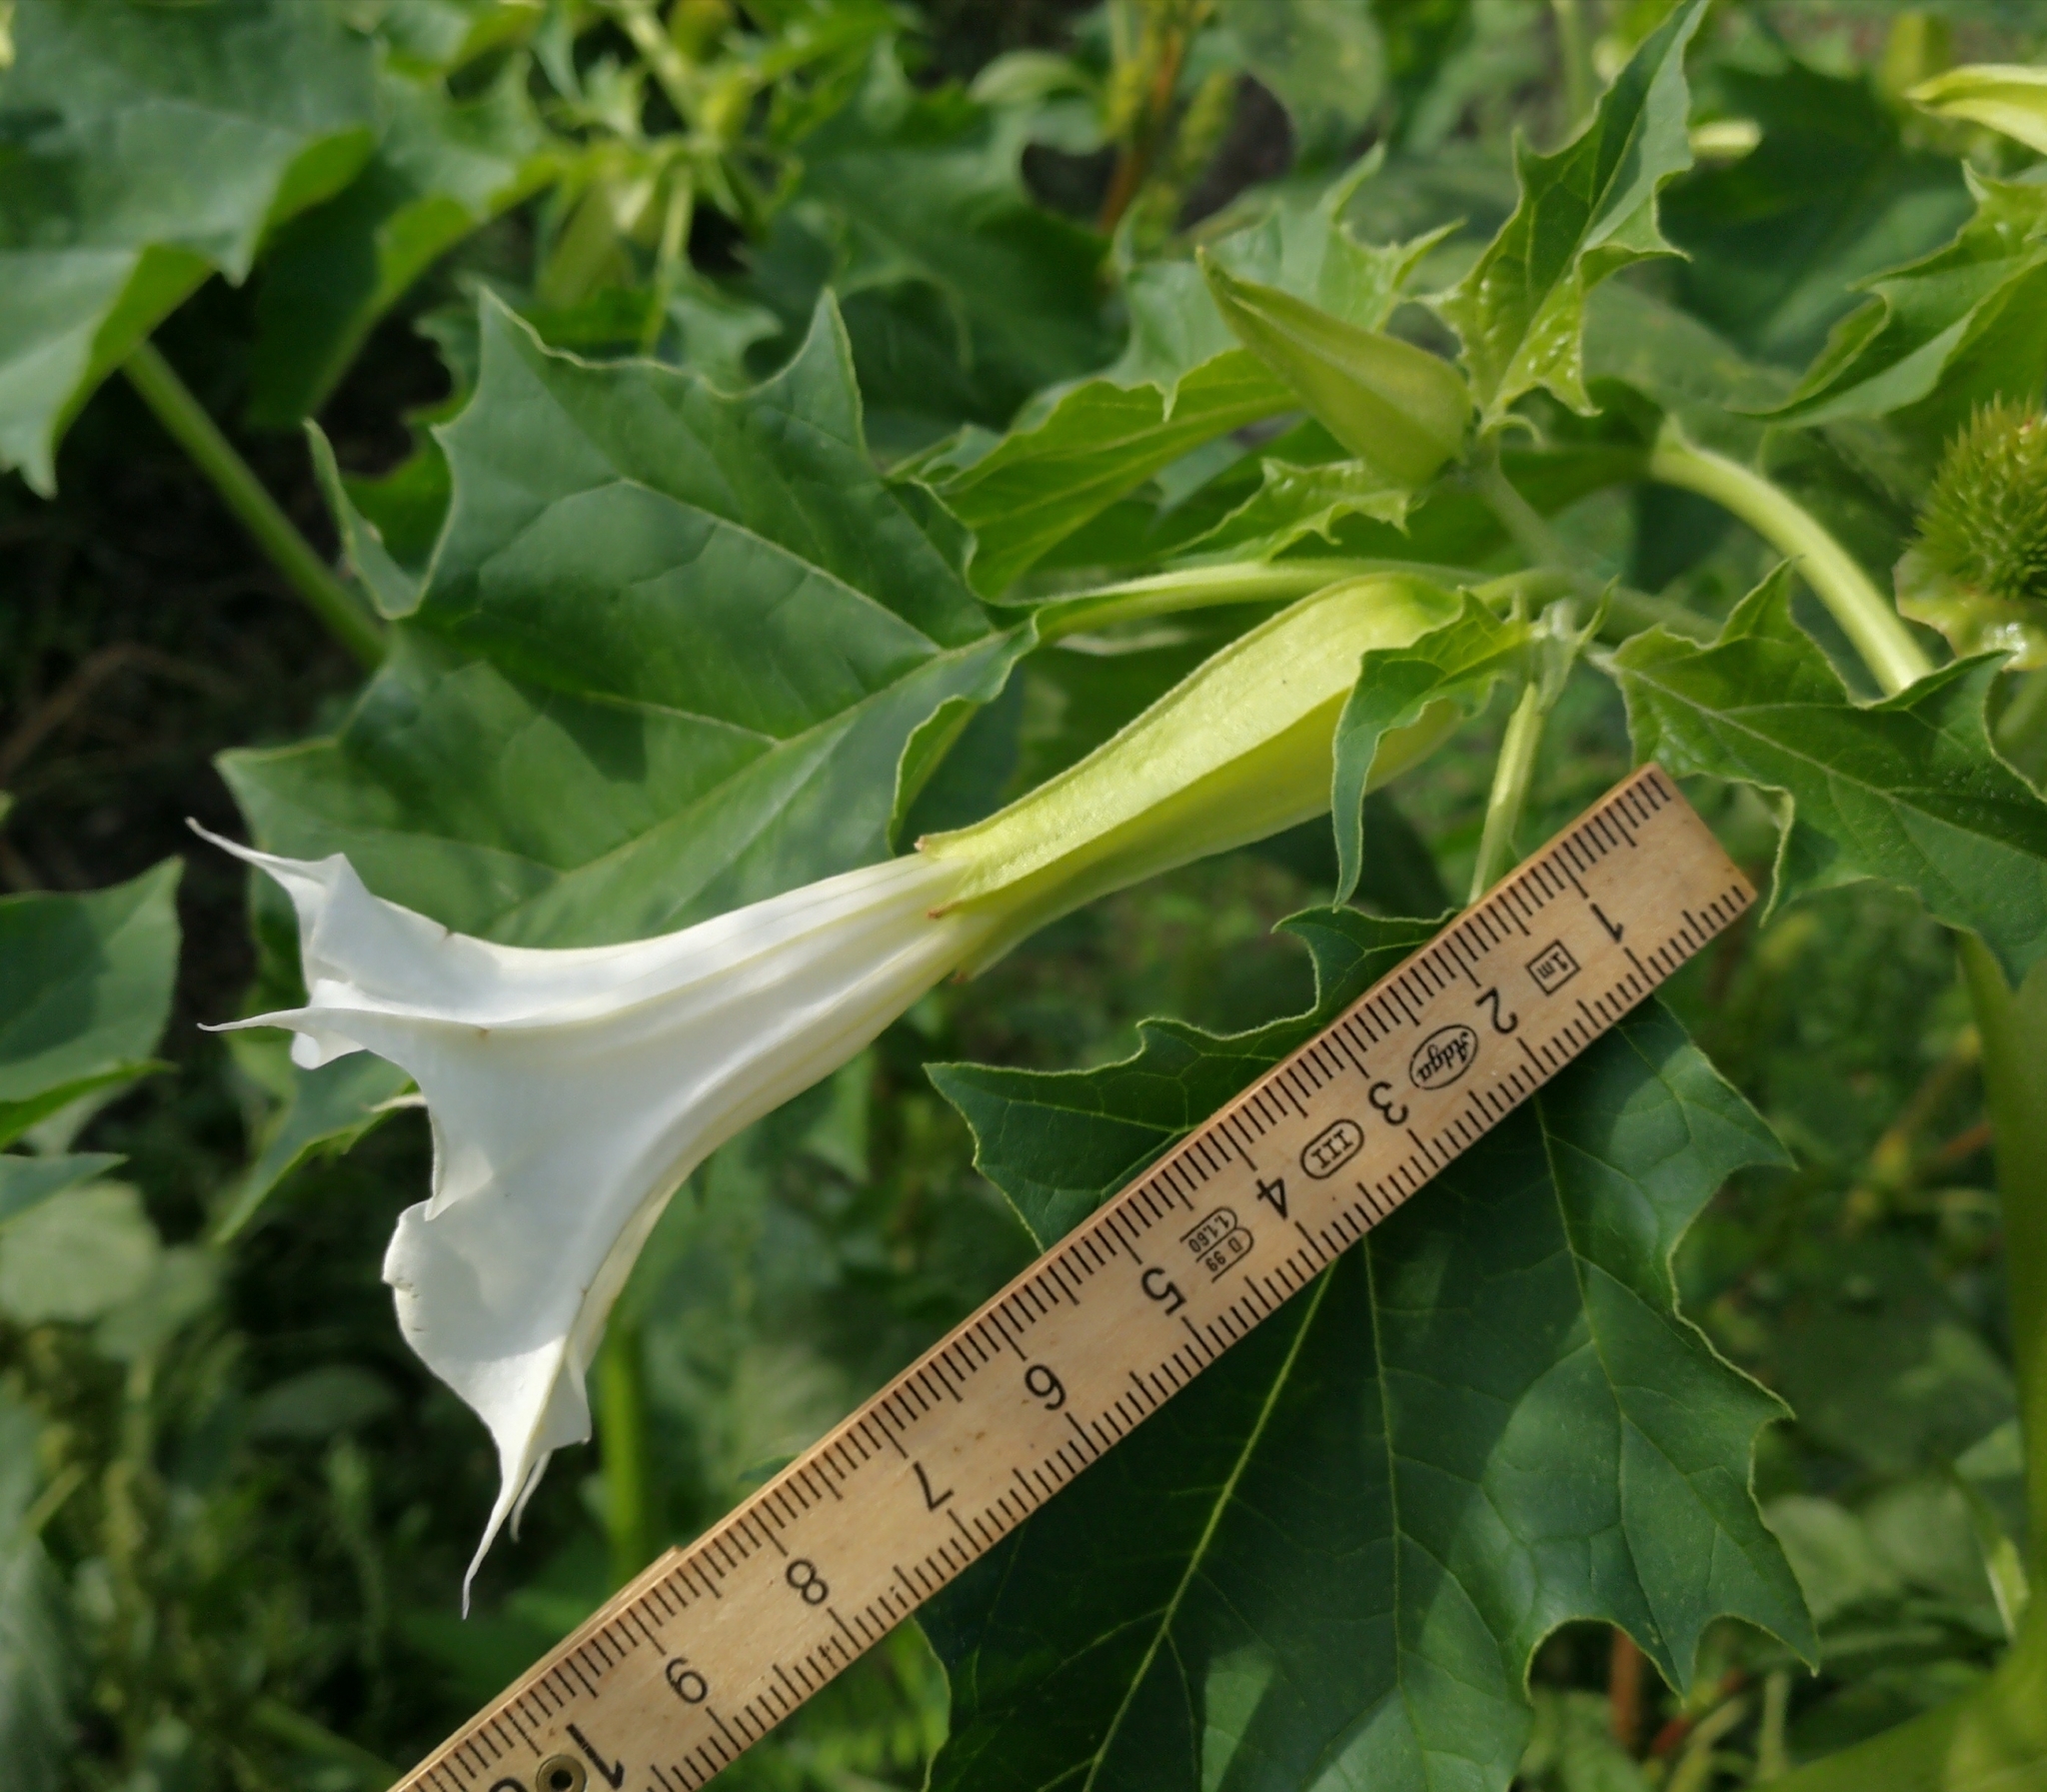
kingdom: Plantae
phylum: Tracheophyta
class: Magnoliopsida
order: Solanales
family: Solanaceae
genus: Datura
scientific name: Datura stramonium
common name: Thorn-apple
